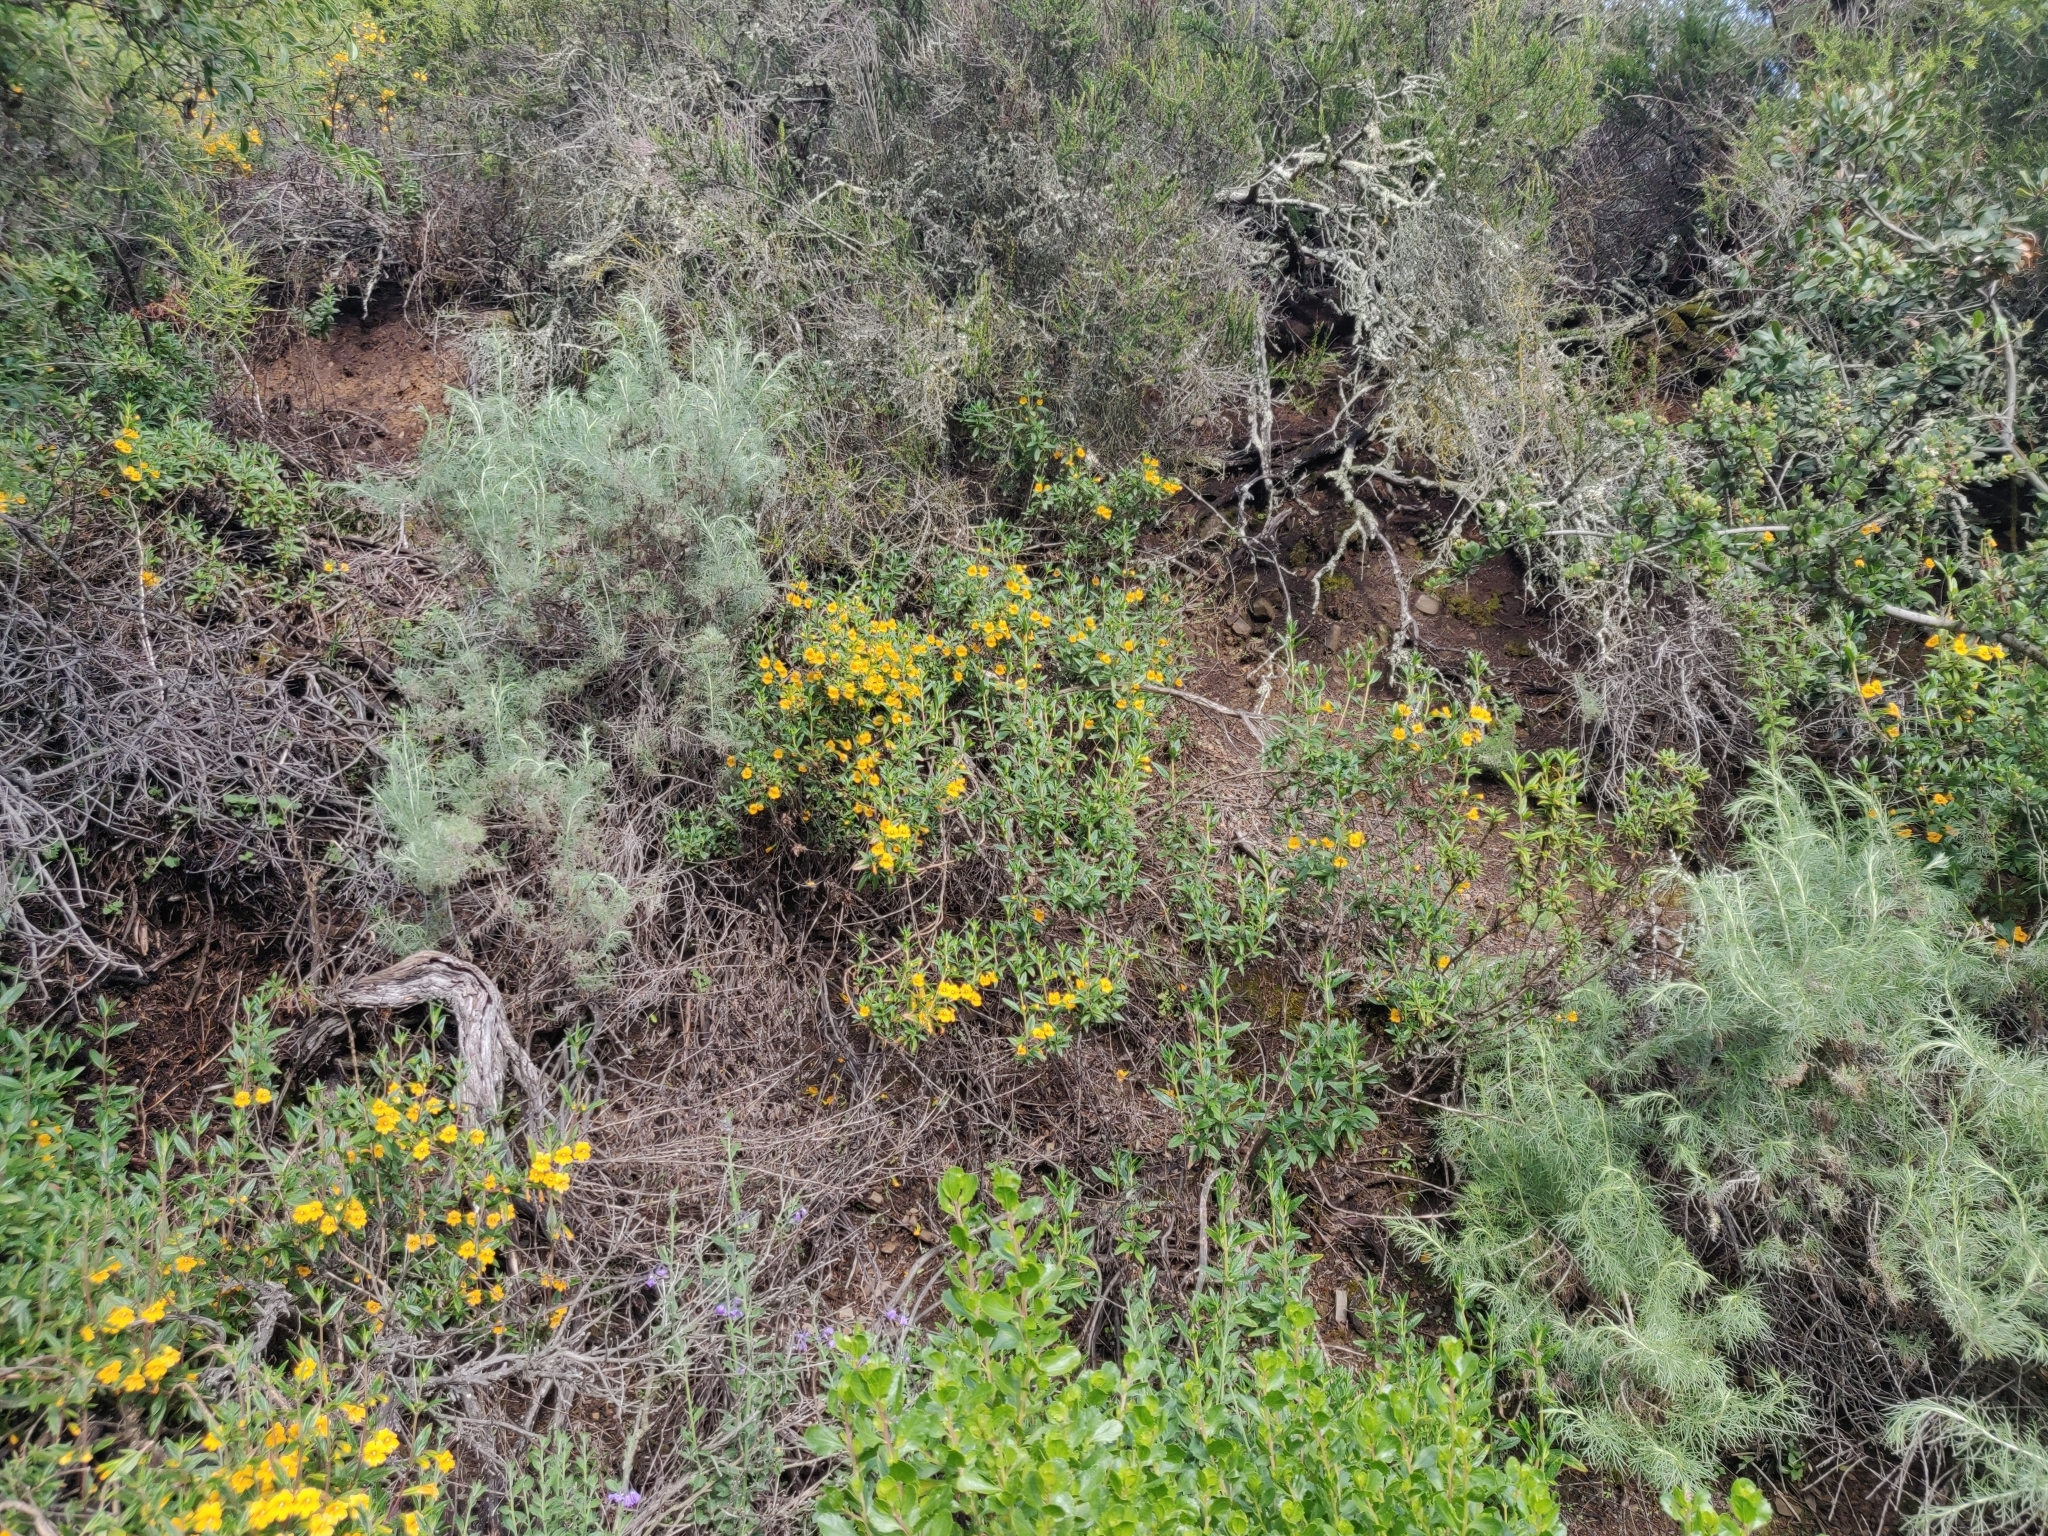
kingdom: Plantae
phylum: Tracheophyta
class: Magnoliopsida
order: Lamiales
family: Phrymaceae
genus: Diplacus
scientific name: Diplacus aurantiacus
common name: Bush monkey-flower
